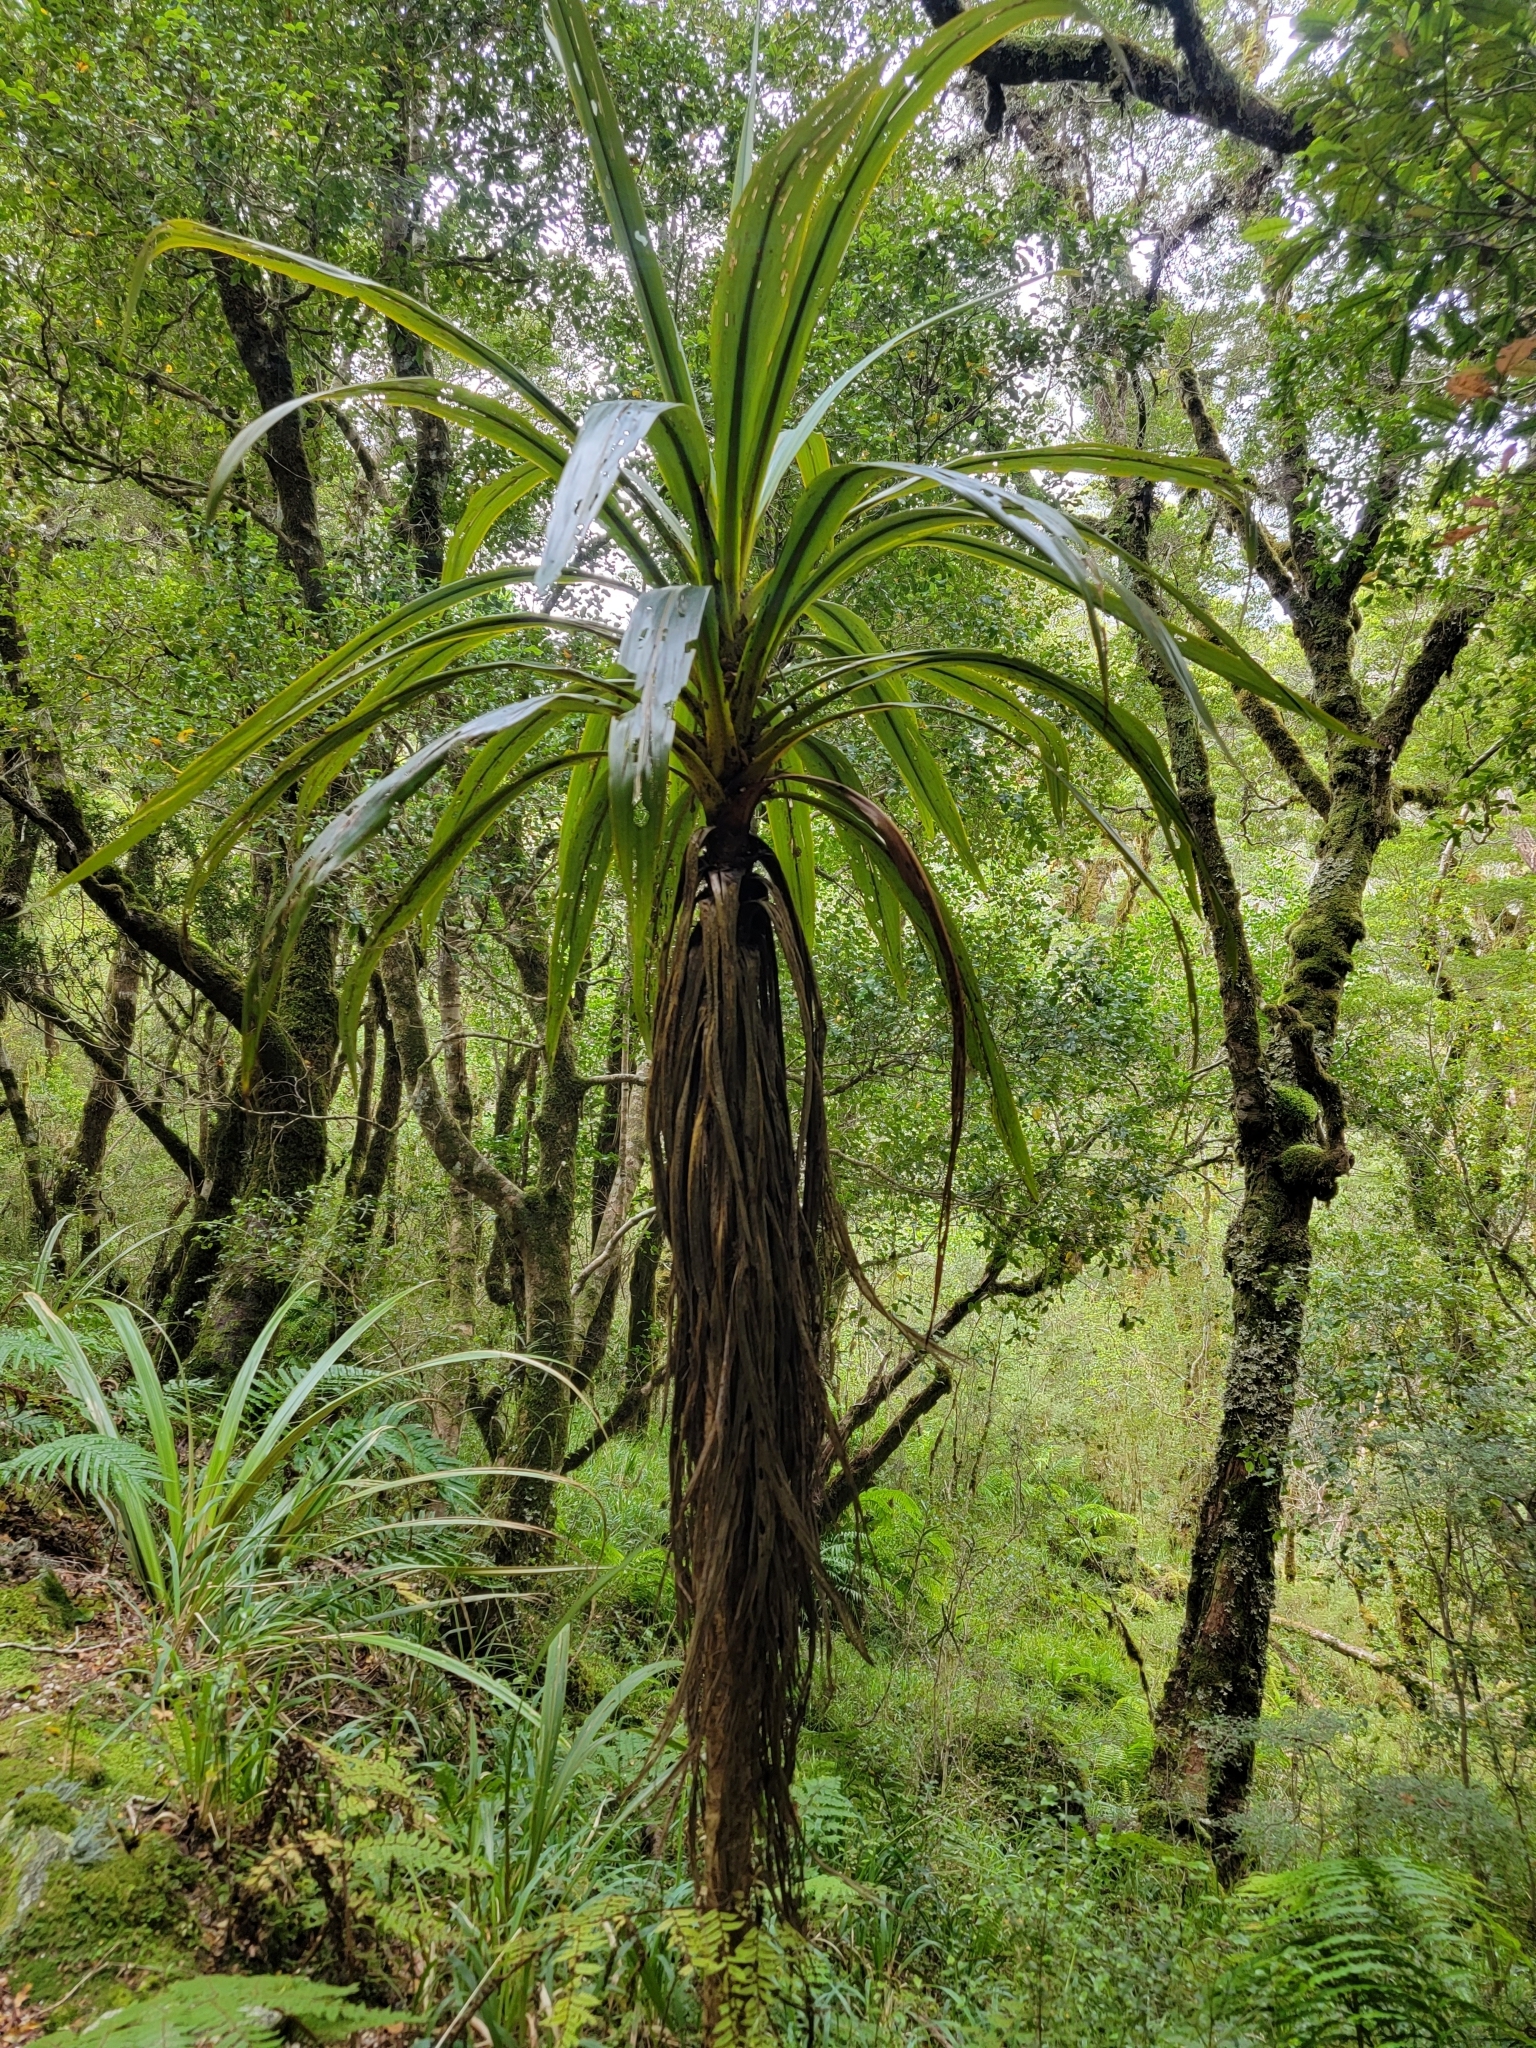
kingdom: Plantae
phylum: Tracheophyta
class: Liliopsida
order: Asparagales
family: Asparagaceae
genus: Cordyline
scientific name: Cordyline banksii
